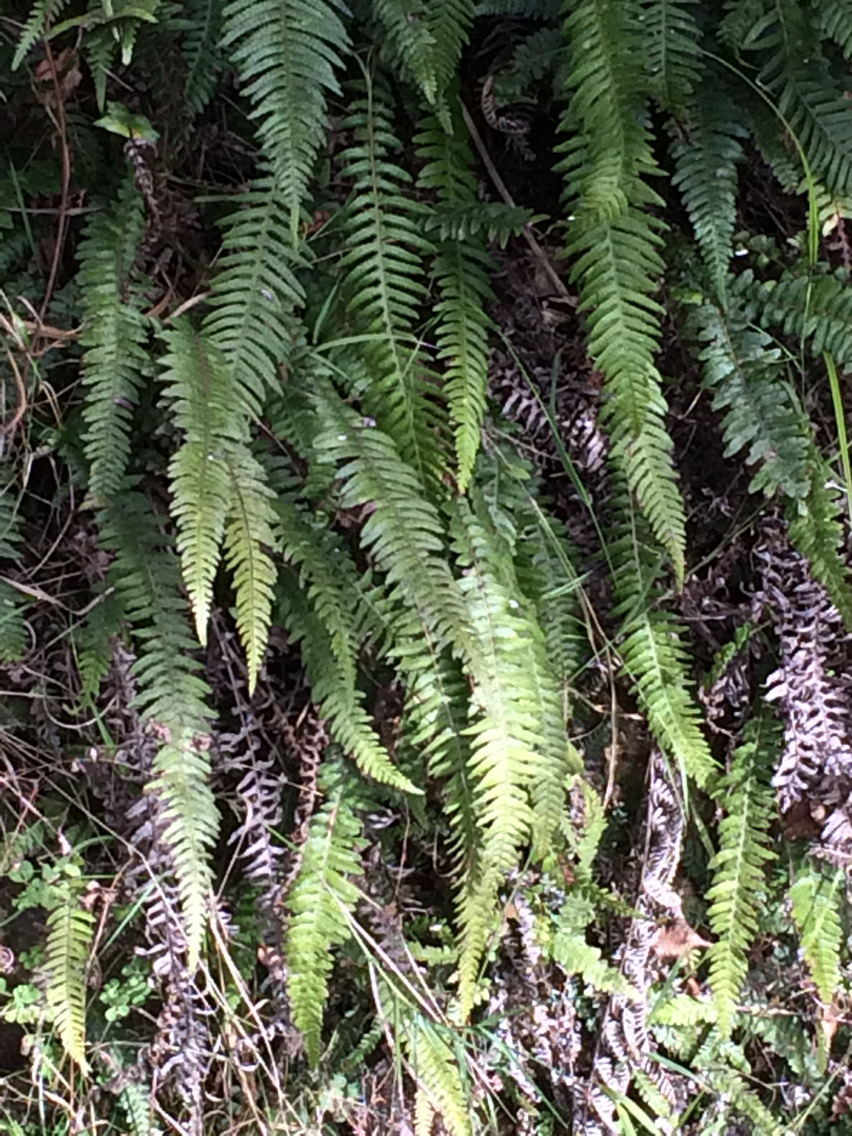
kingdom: Plantae
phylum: Tracheophyta
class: Polypodiopsida
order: Polypodiales
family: Blechnaceae
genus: Doodia
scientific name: Doodia australis
